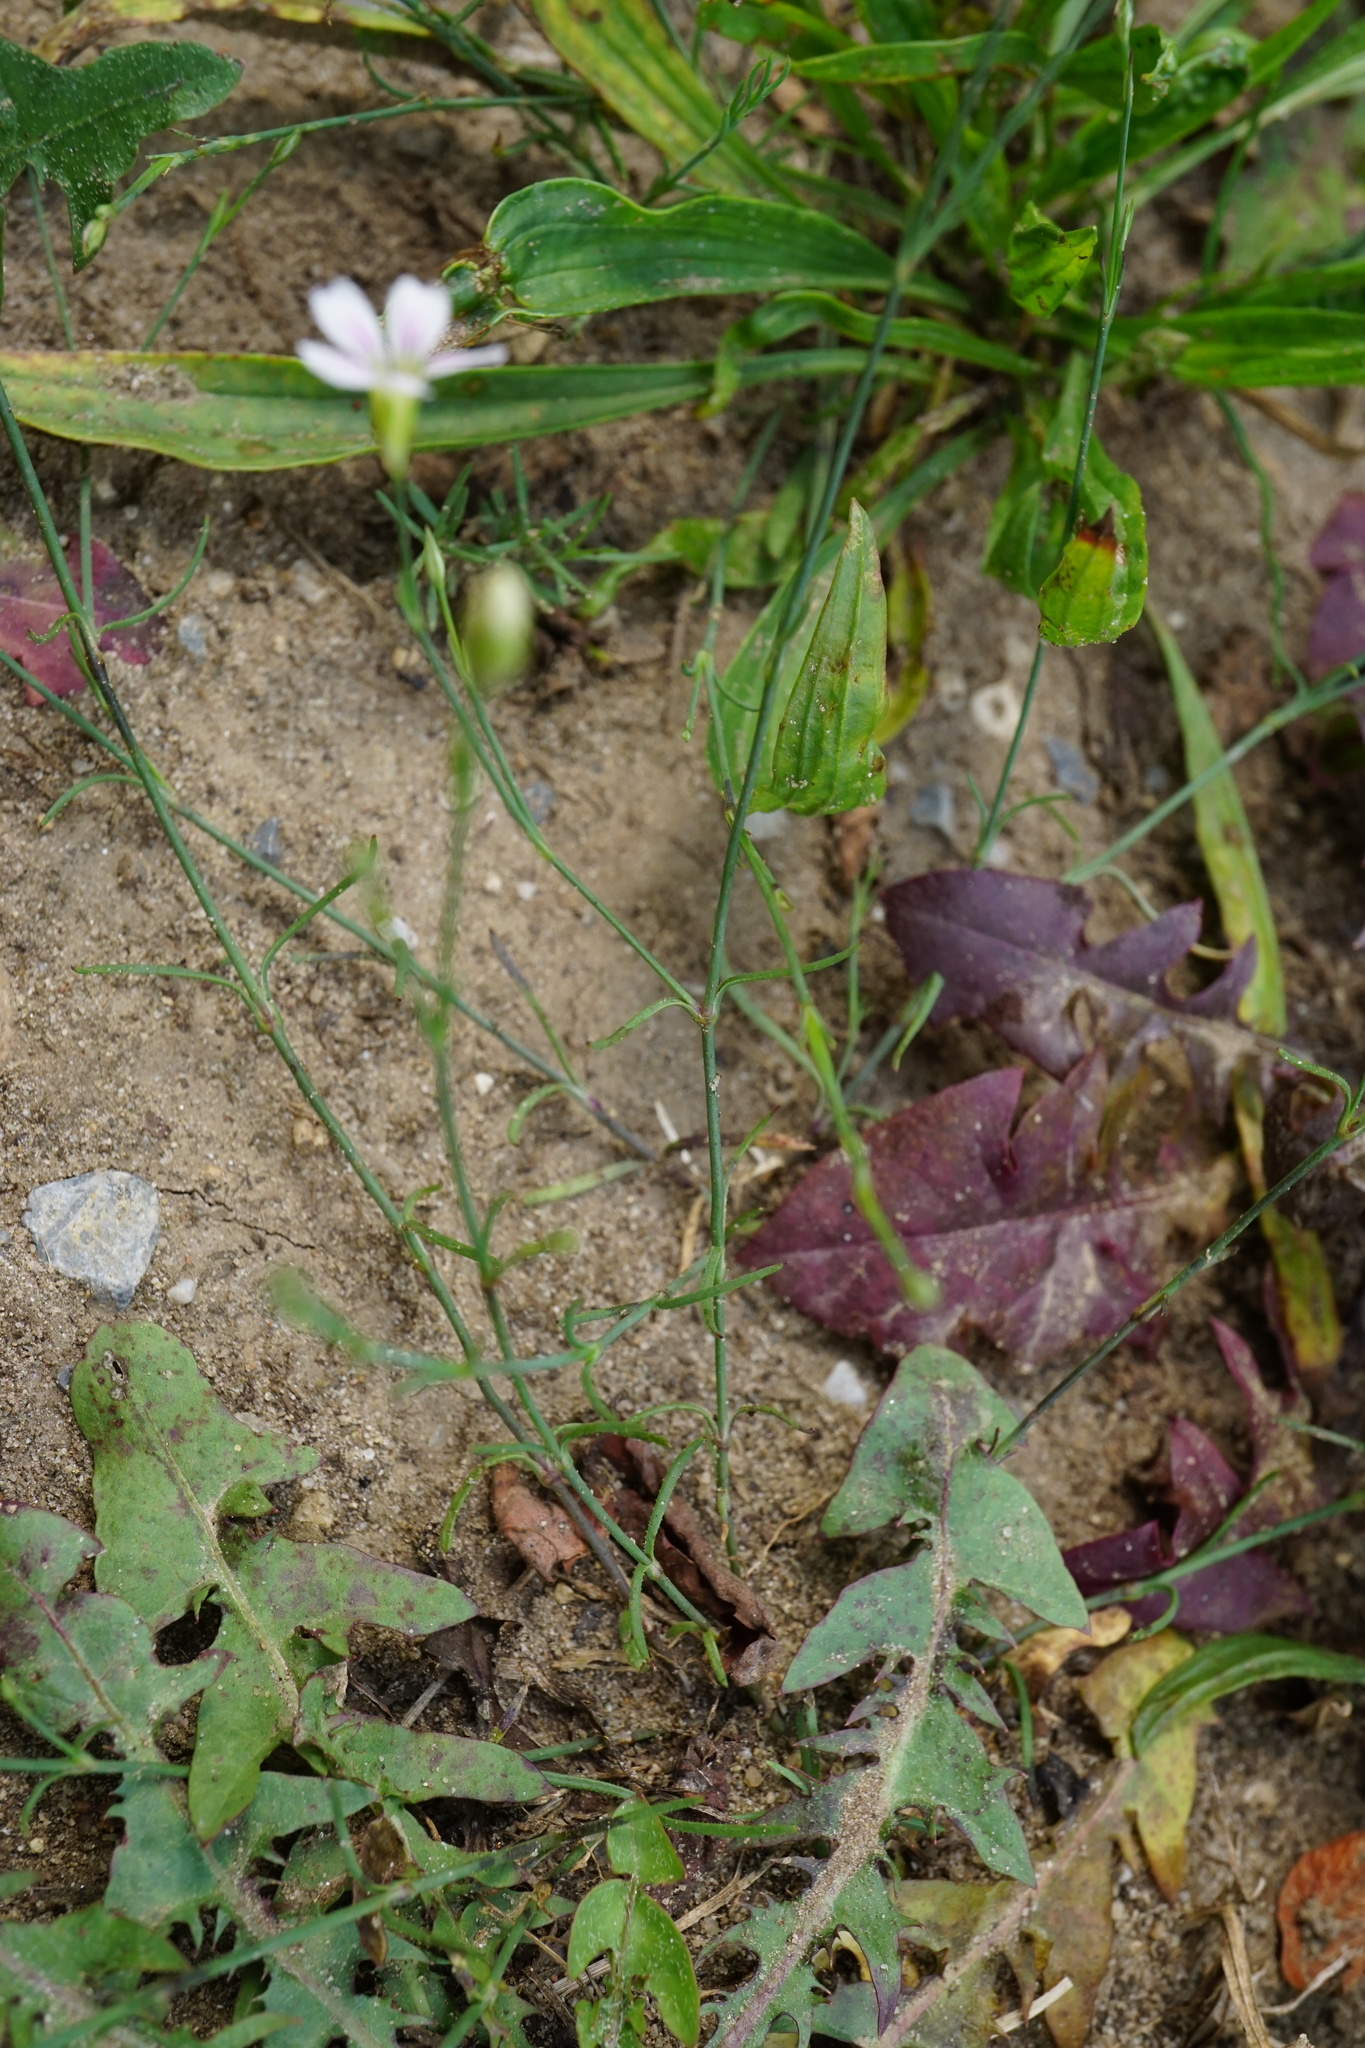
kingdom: Plantae
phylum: Tracheophyta
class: Magnoliopsida
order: Caryophyllales
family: Caryophyllaceae
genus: Petrorhagia
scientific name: Petrorhagia saxifraga
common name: Tunicflower
